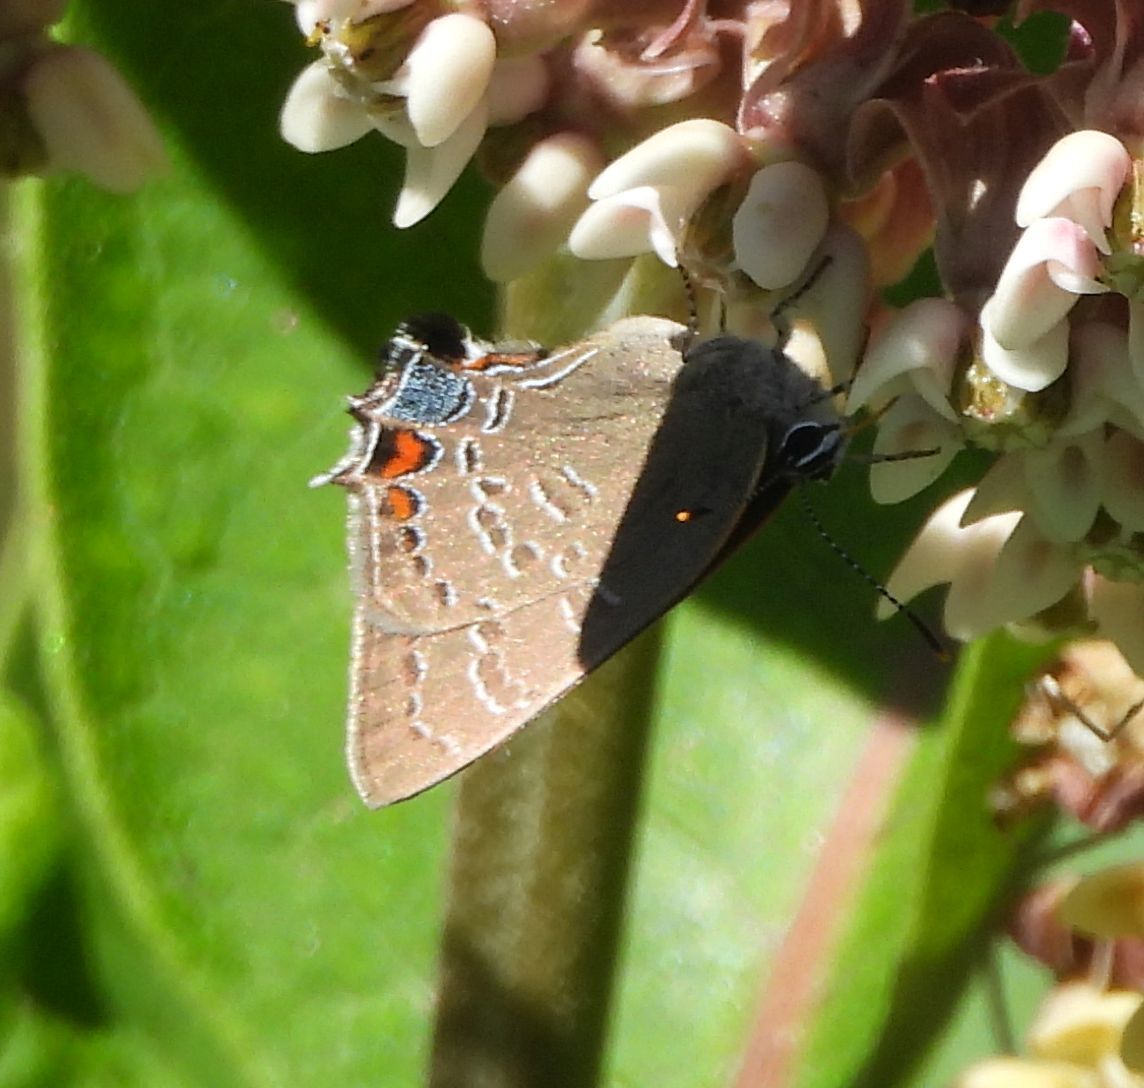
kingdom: Animalia
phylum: Arthropoda
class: Insecta
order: Lepidoptera
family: Lycaenidae
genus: Satyrium
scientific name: Satyrium calanus
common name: Banded hairstreak
